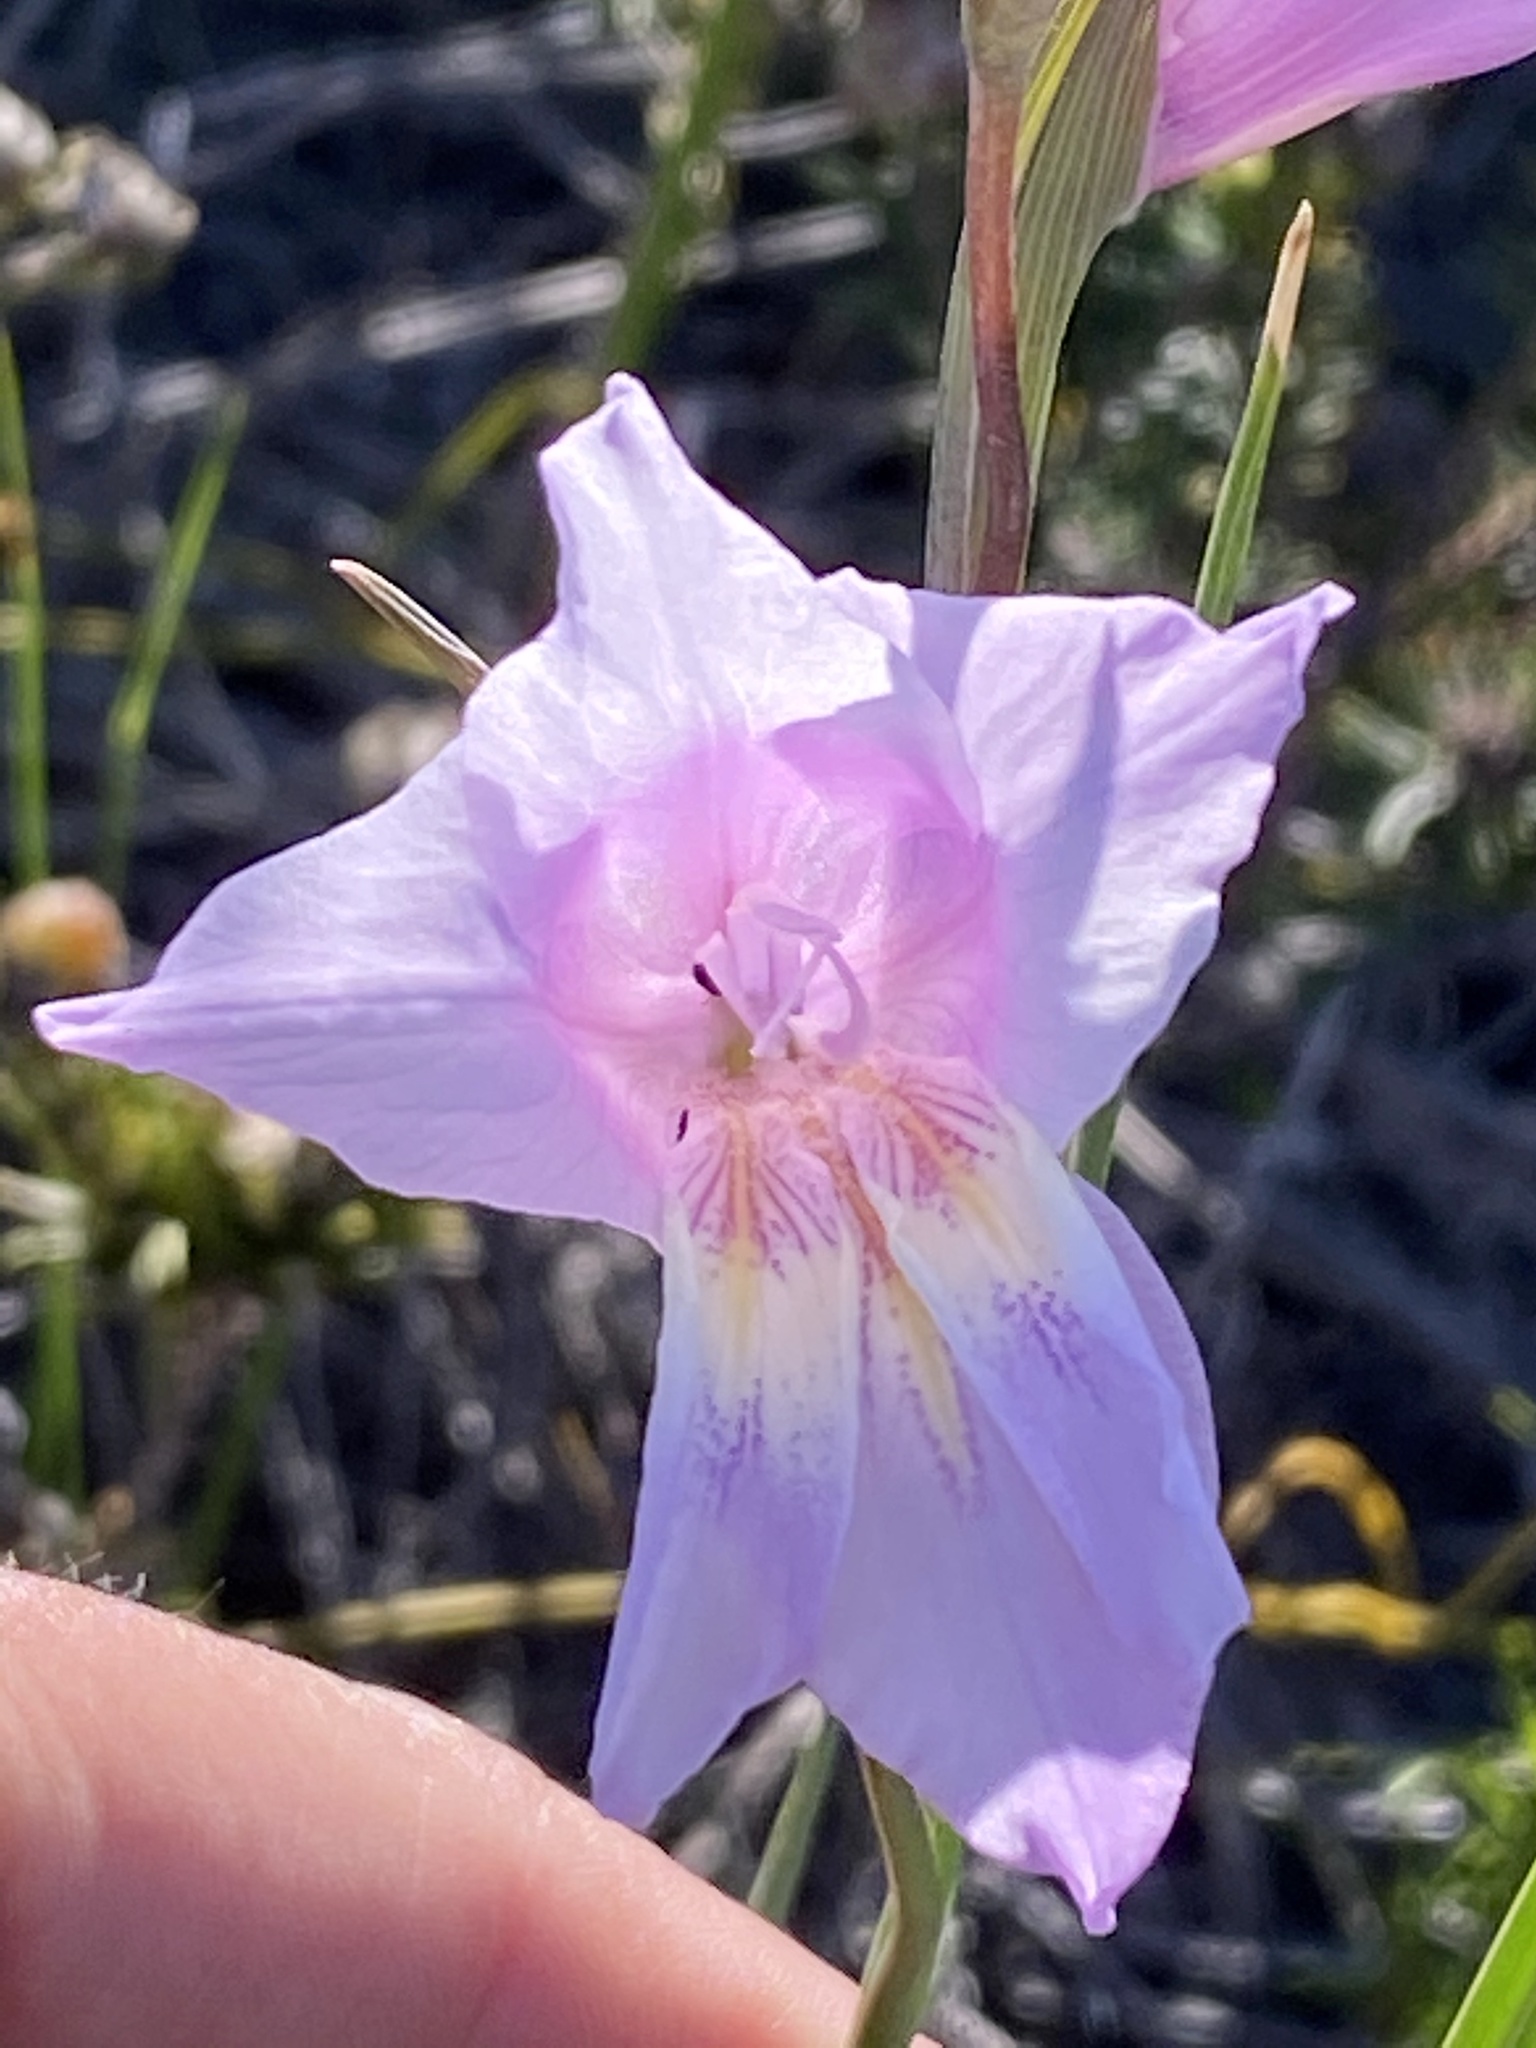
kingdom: Plantae
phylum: Tracheophyta
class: Liliopsida
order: Asparagales
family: Iridaceae
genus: Gladiolus
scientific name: Gladiolus carinatus
